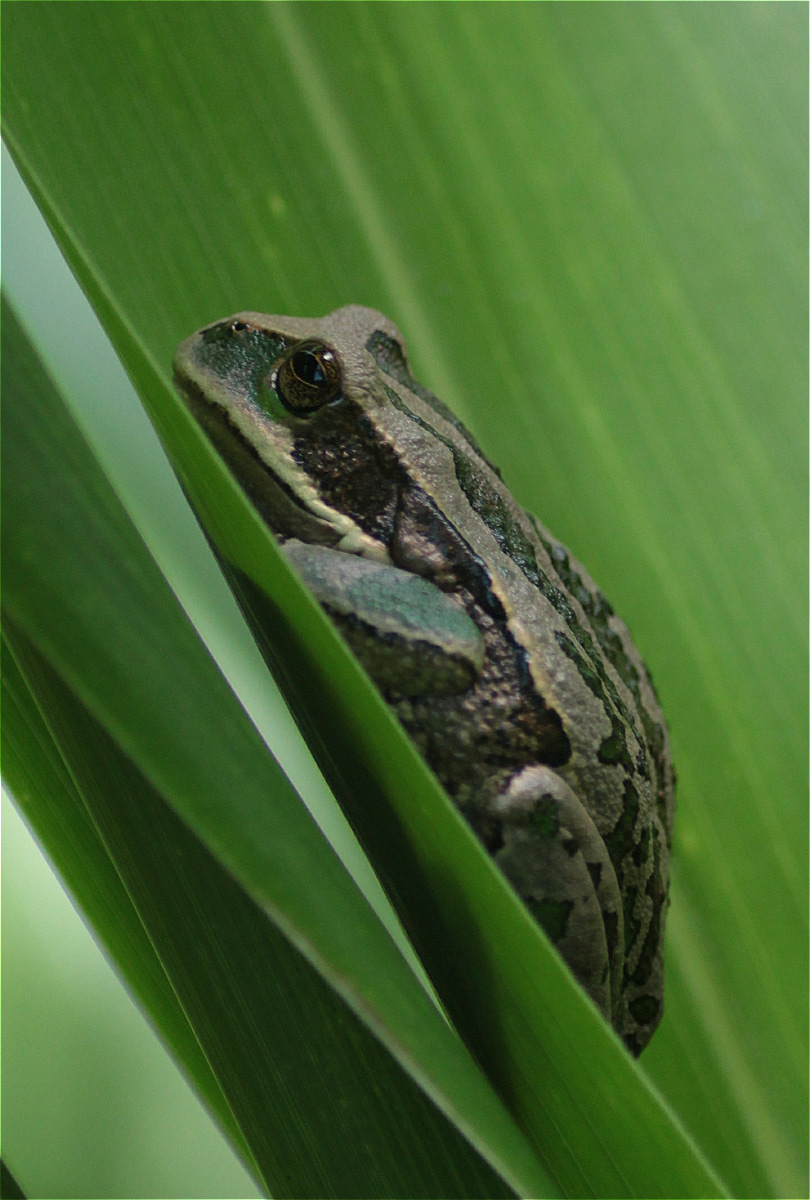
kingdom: Animalia
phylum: Chordata
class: Amphibia
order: Anura
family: Hemiphractidae
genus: Gastrotheca
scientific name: Gastrotheca cuencana
